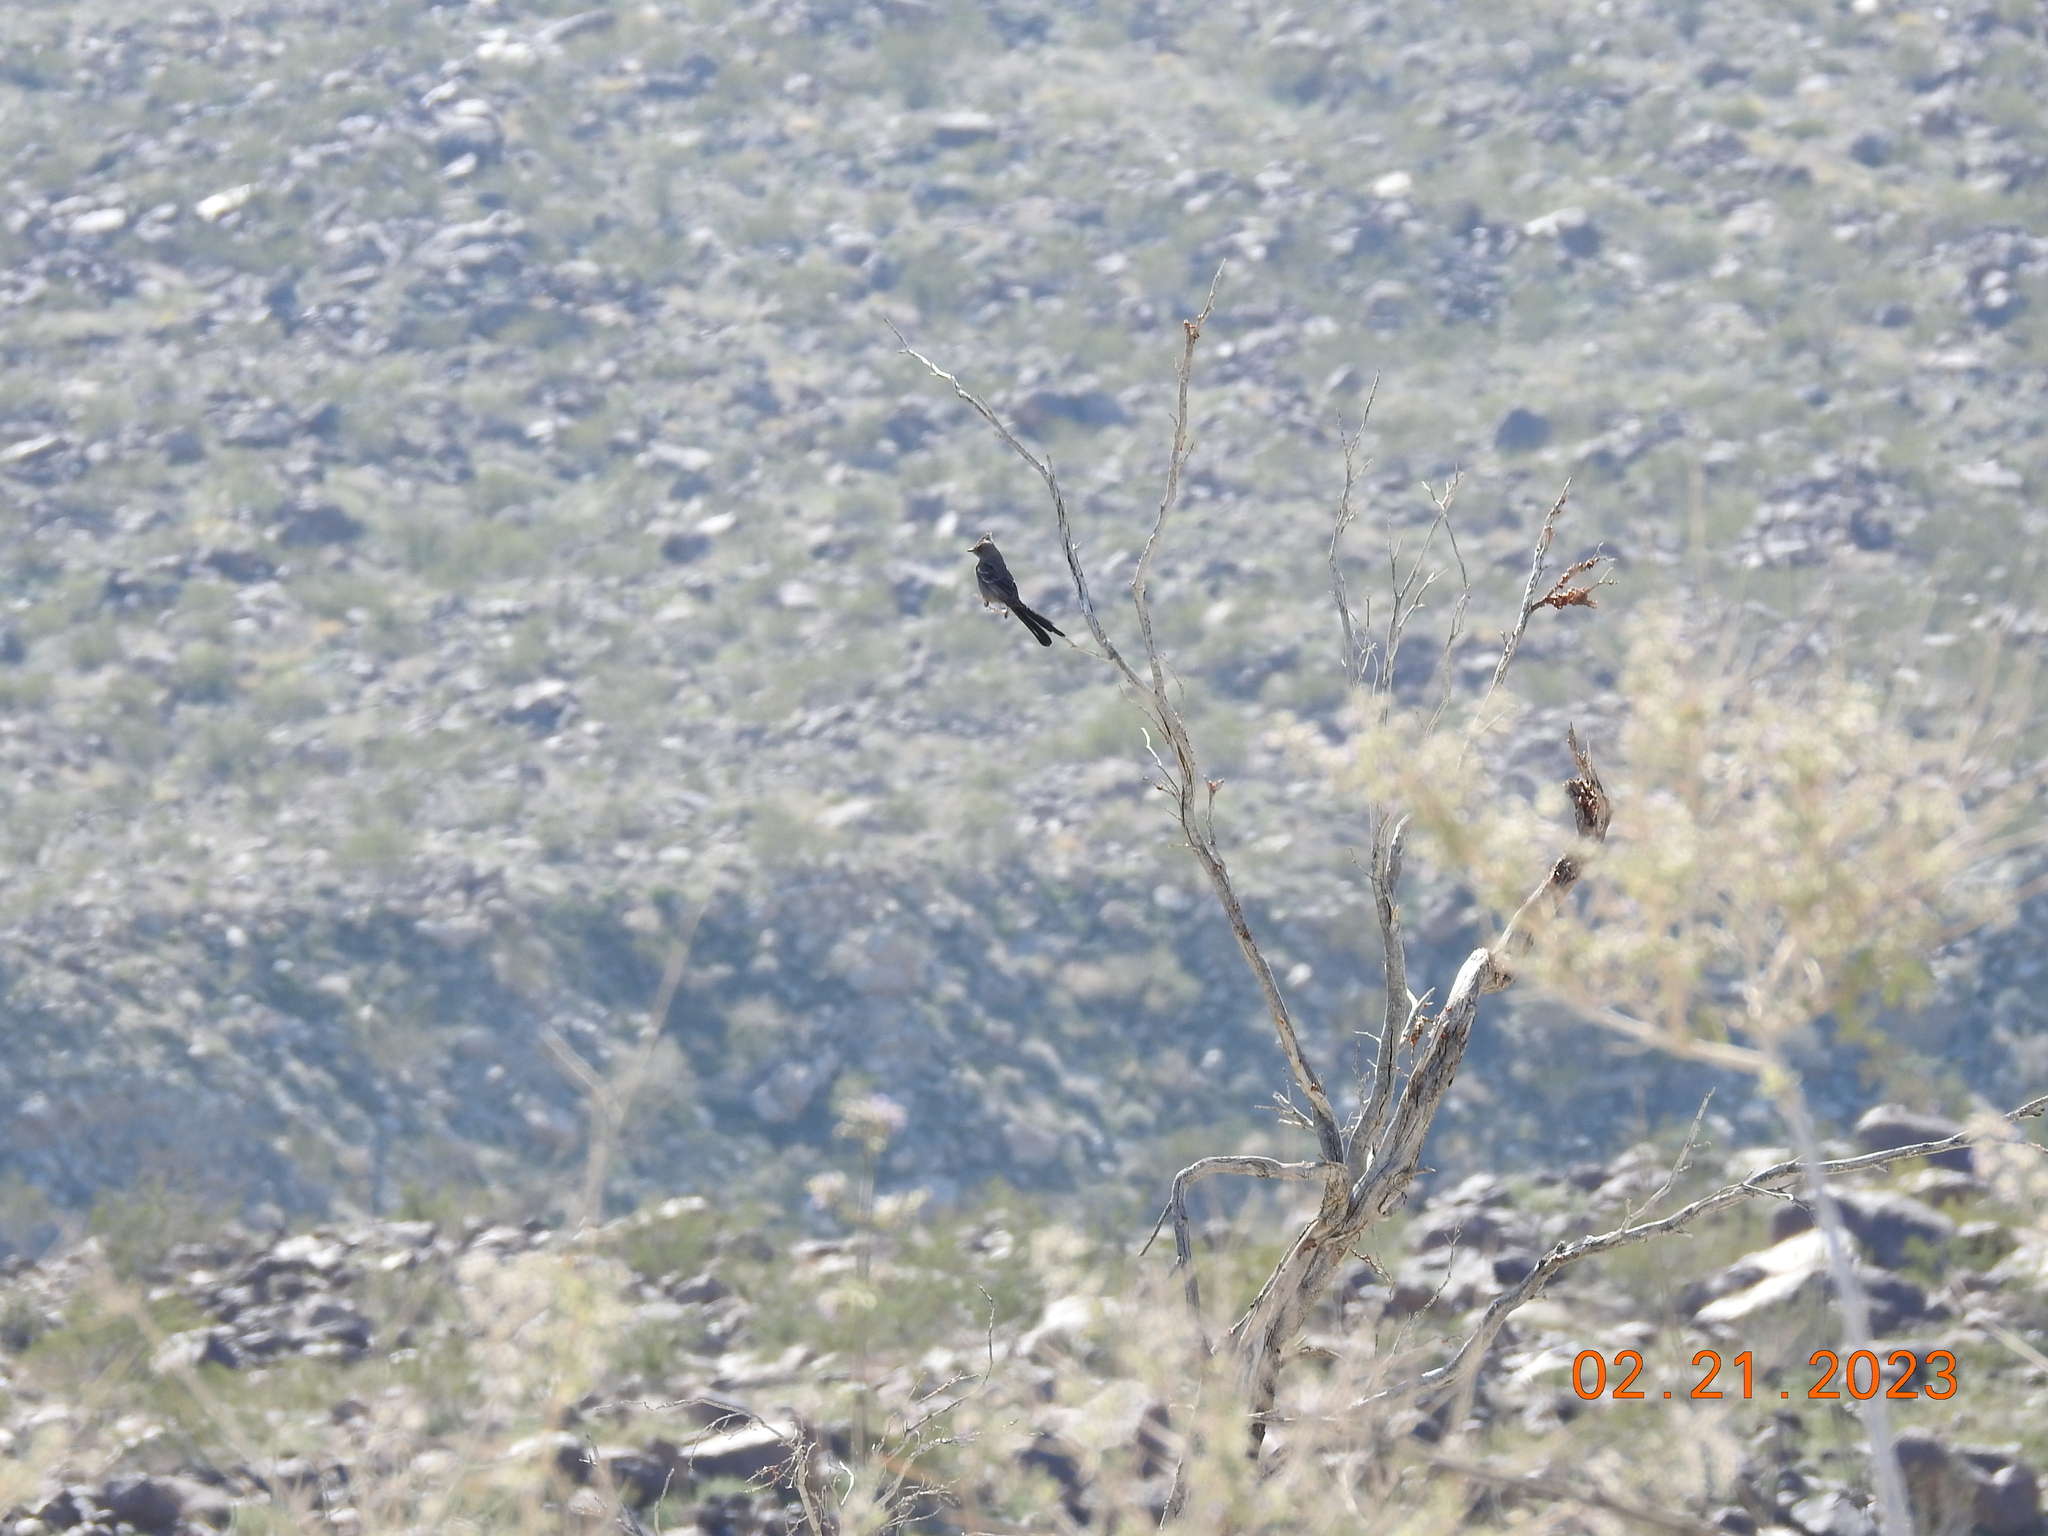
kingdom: Animalia
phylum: Chordata
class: Aves
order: Passeriformes
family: Ptilogonatidae
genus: Phainopepla
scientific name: Phainopepla nitens
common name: Phainopepla
